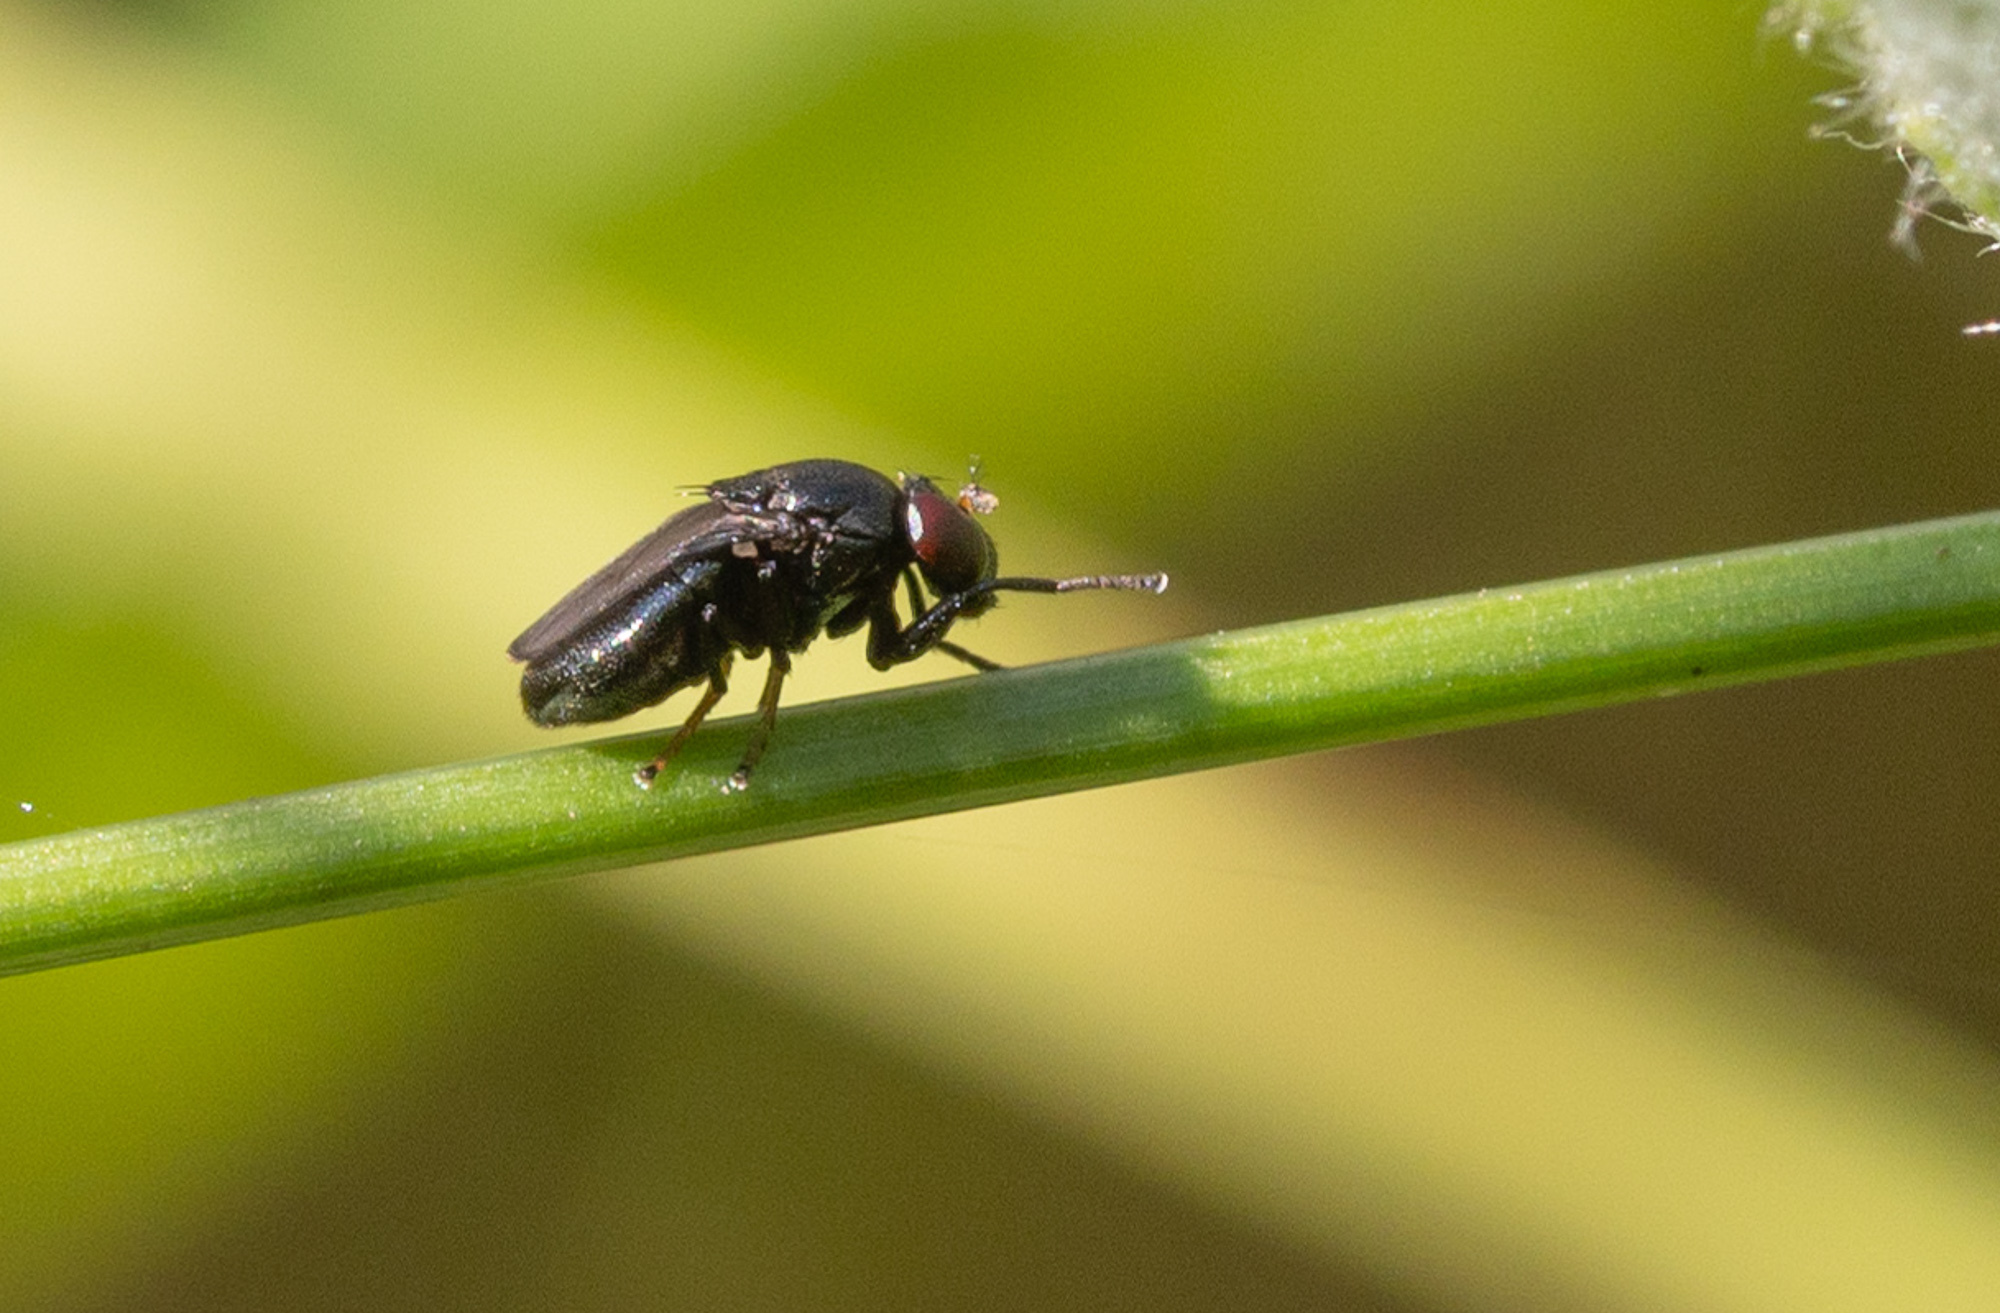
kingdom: Animalia
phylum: Arthropoda
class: Insecta
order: Diptera
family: Ephydridae
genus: Discomyza
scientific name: Discomyza incurva
